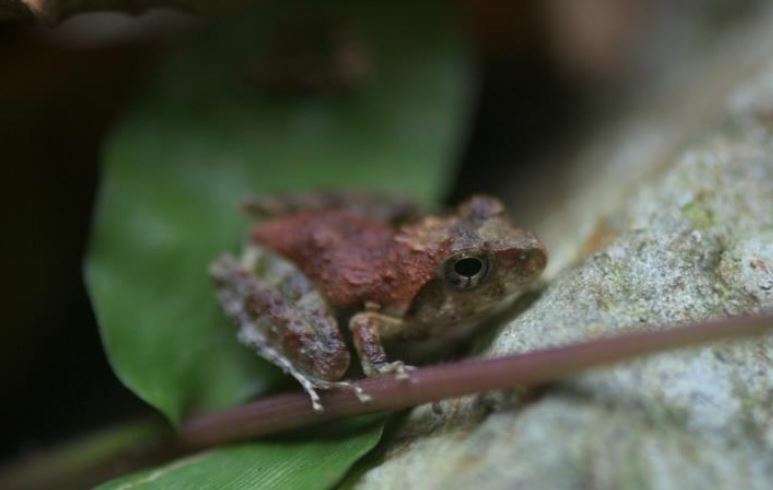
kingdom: Animalia
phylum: Chordata
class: Amphibia
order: Anura
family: Rhacophoridae
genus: Buergeria
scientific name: Buergeria japonica
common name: Japanese buerger's frog
